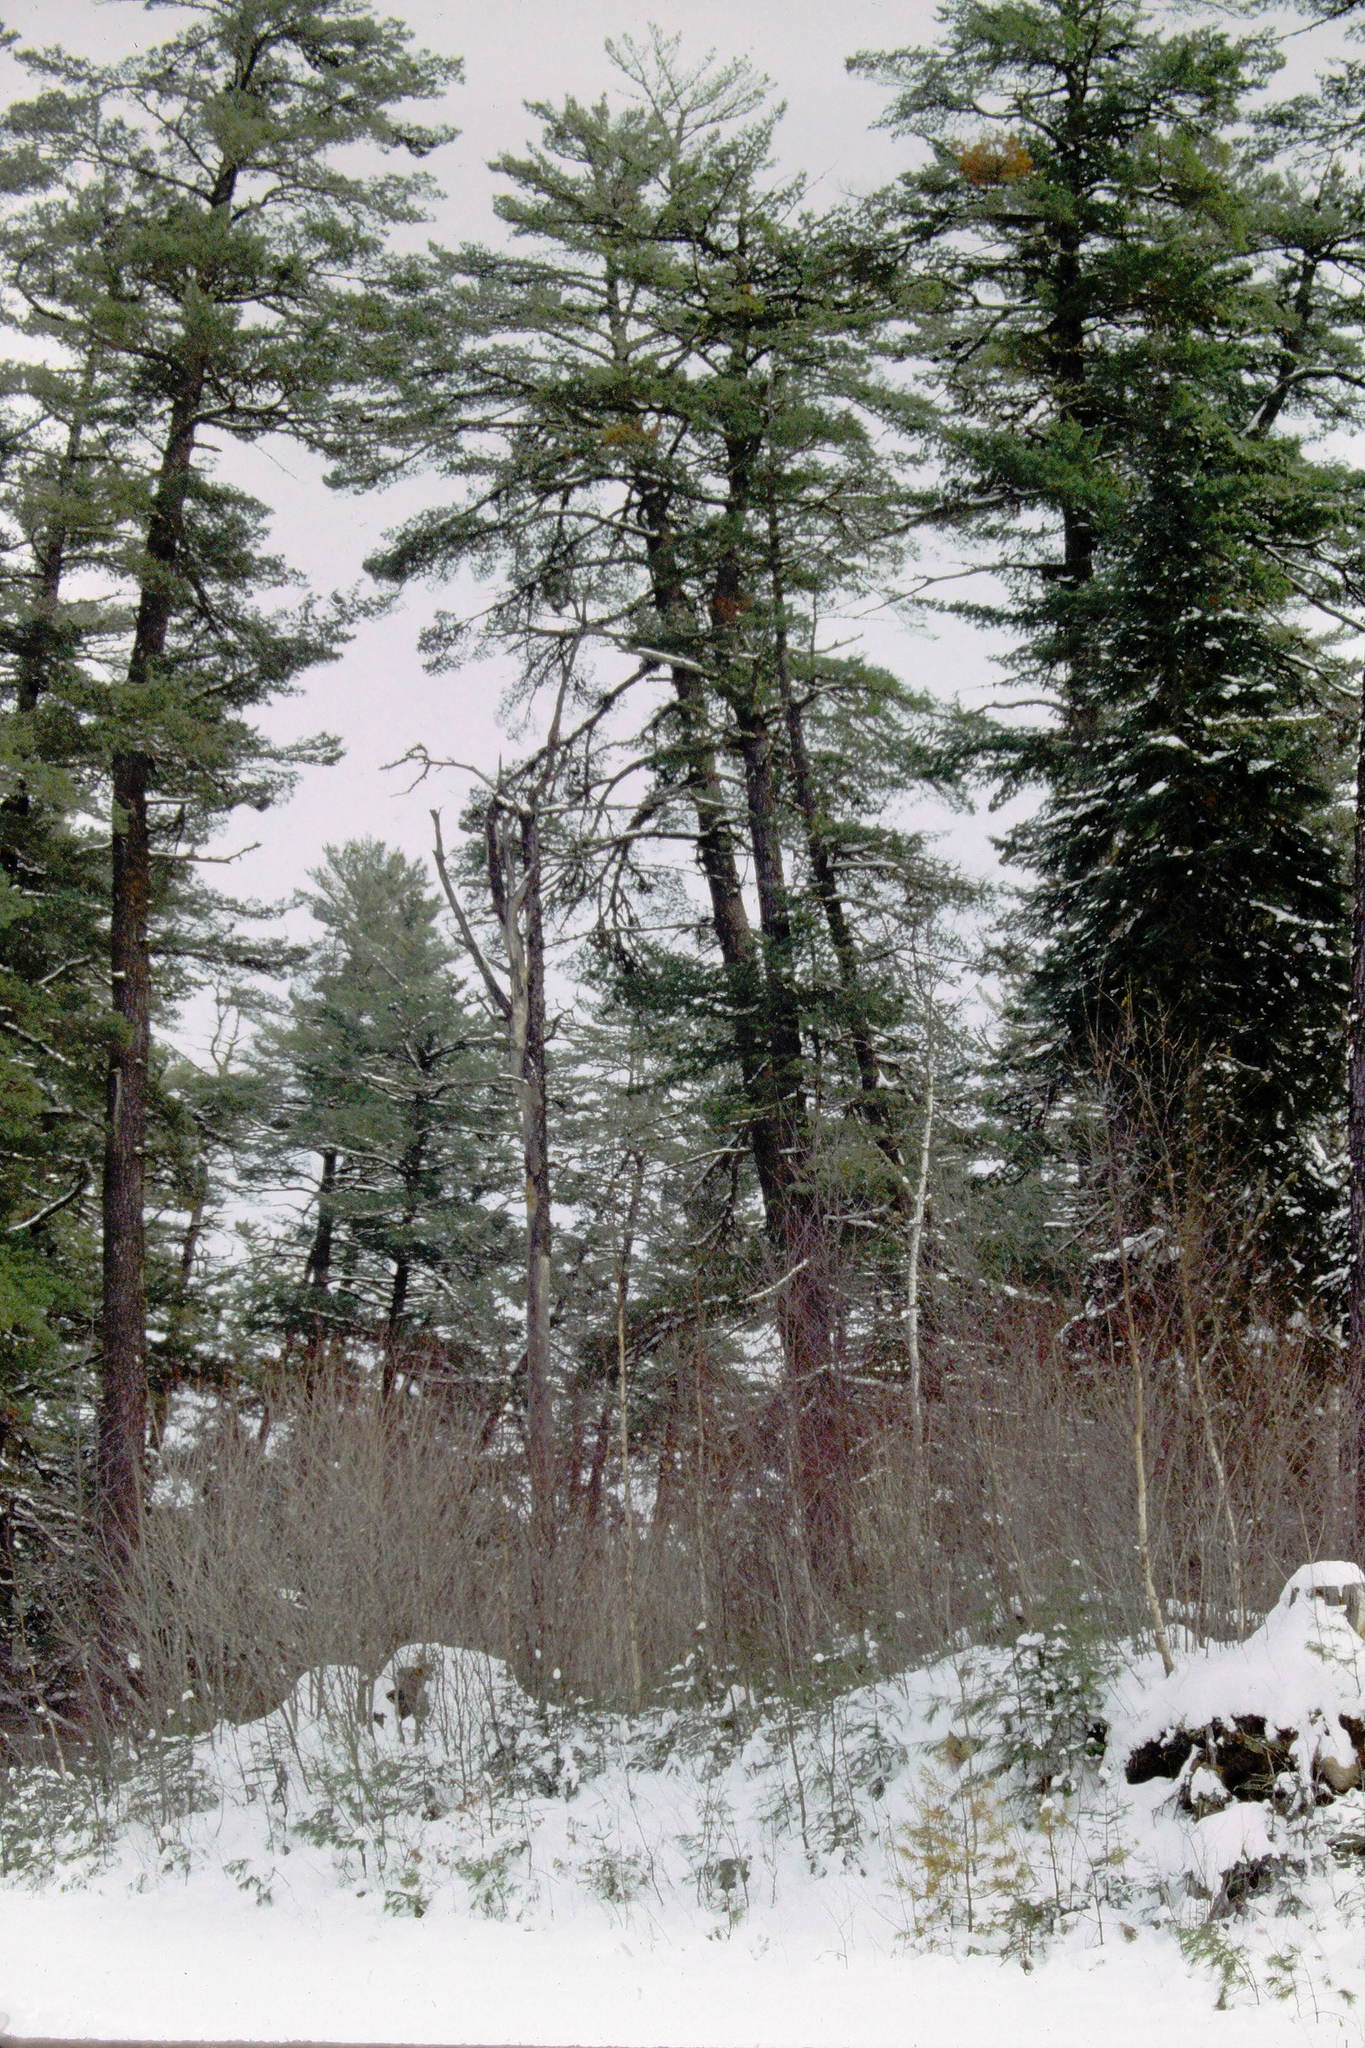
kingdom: Plantae
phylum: Tracheophyta
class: Pinopsida
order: Pinales
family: Pinaceae
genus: Pinus
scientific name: Pinus strobus
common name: Weymouth pine
